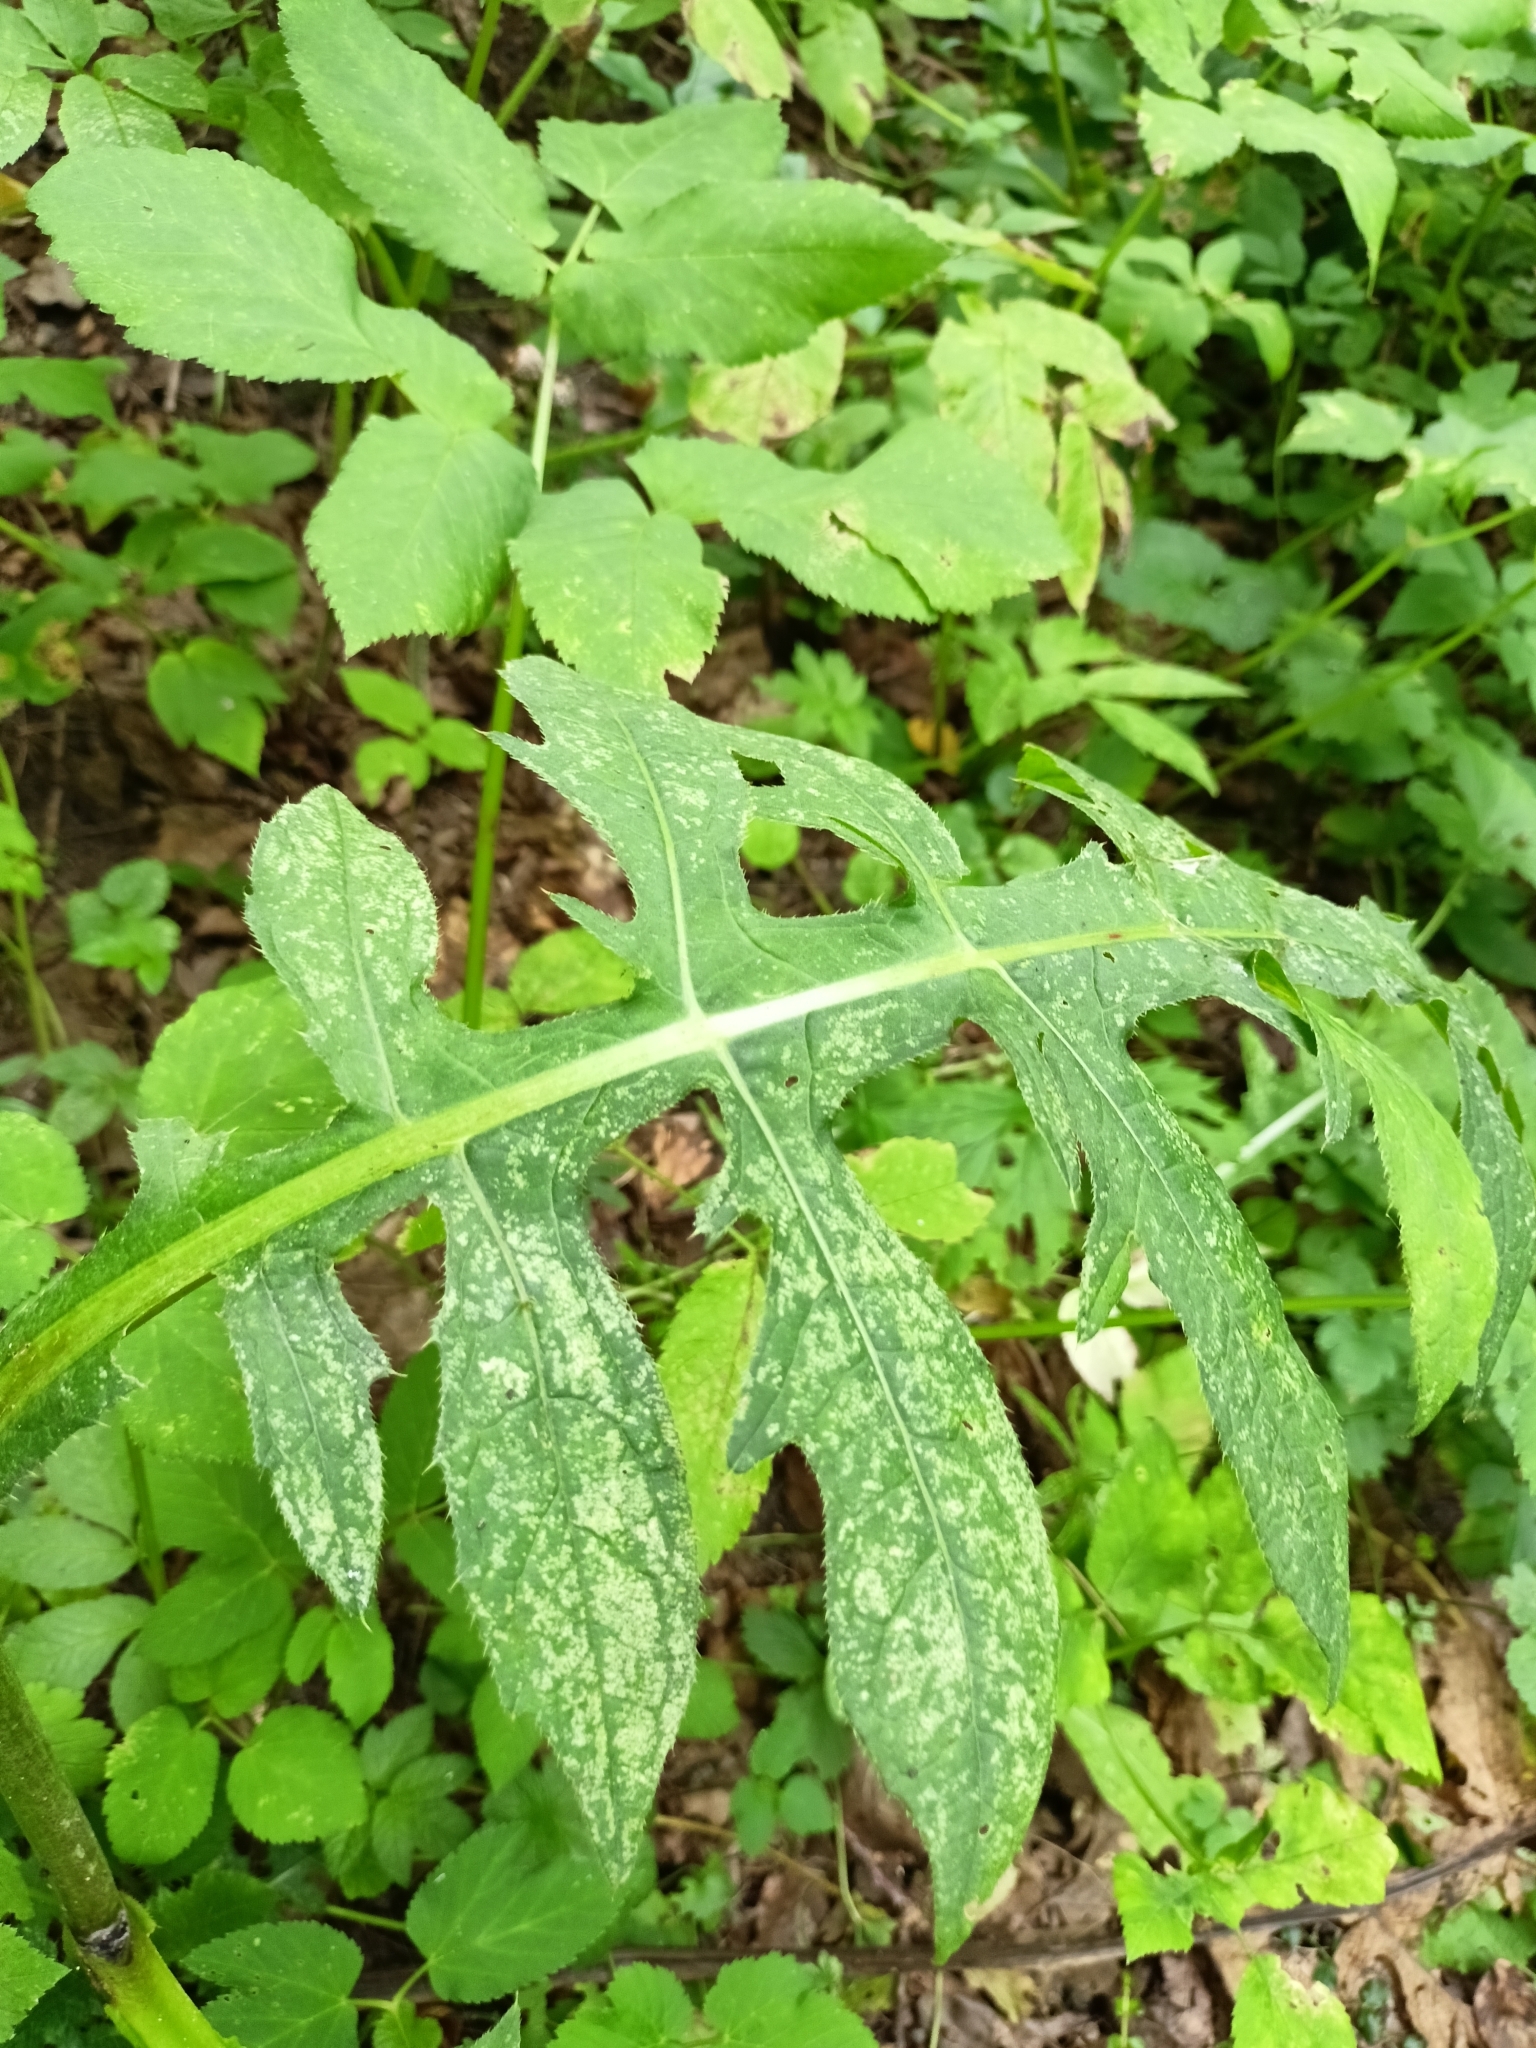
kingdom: Plantae
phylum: Tracheophyta
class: Magnoliopsida
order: Asterales
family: Asteraceae
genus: Cirsium
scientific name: Cirsium oleraceum
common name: Cabbage thistle
